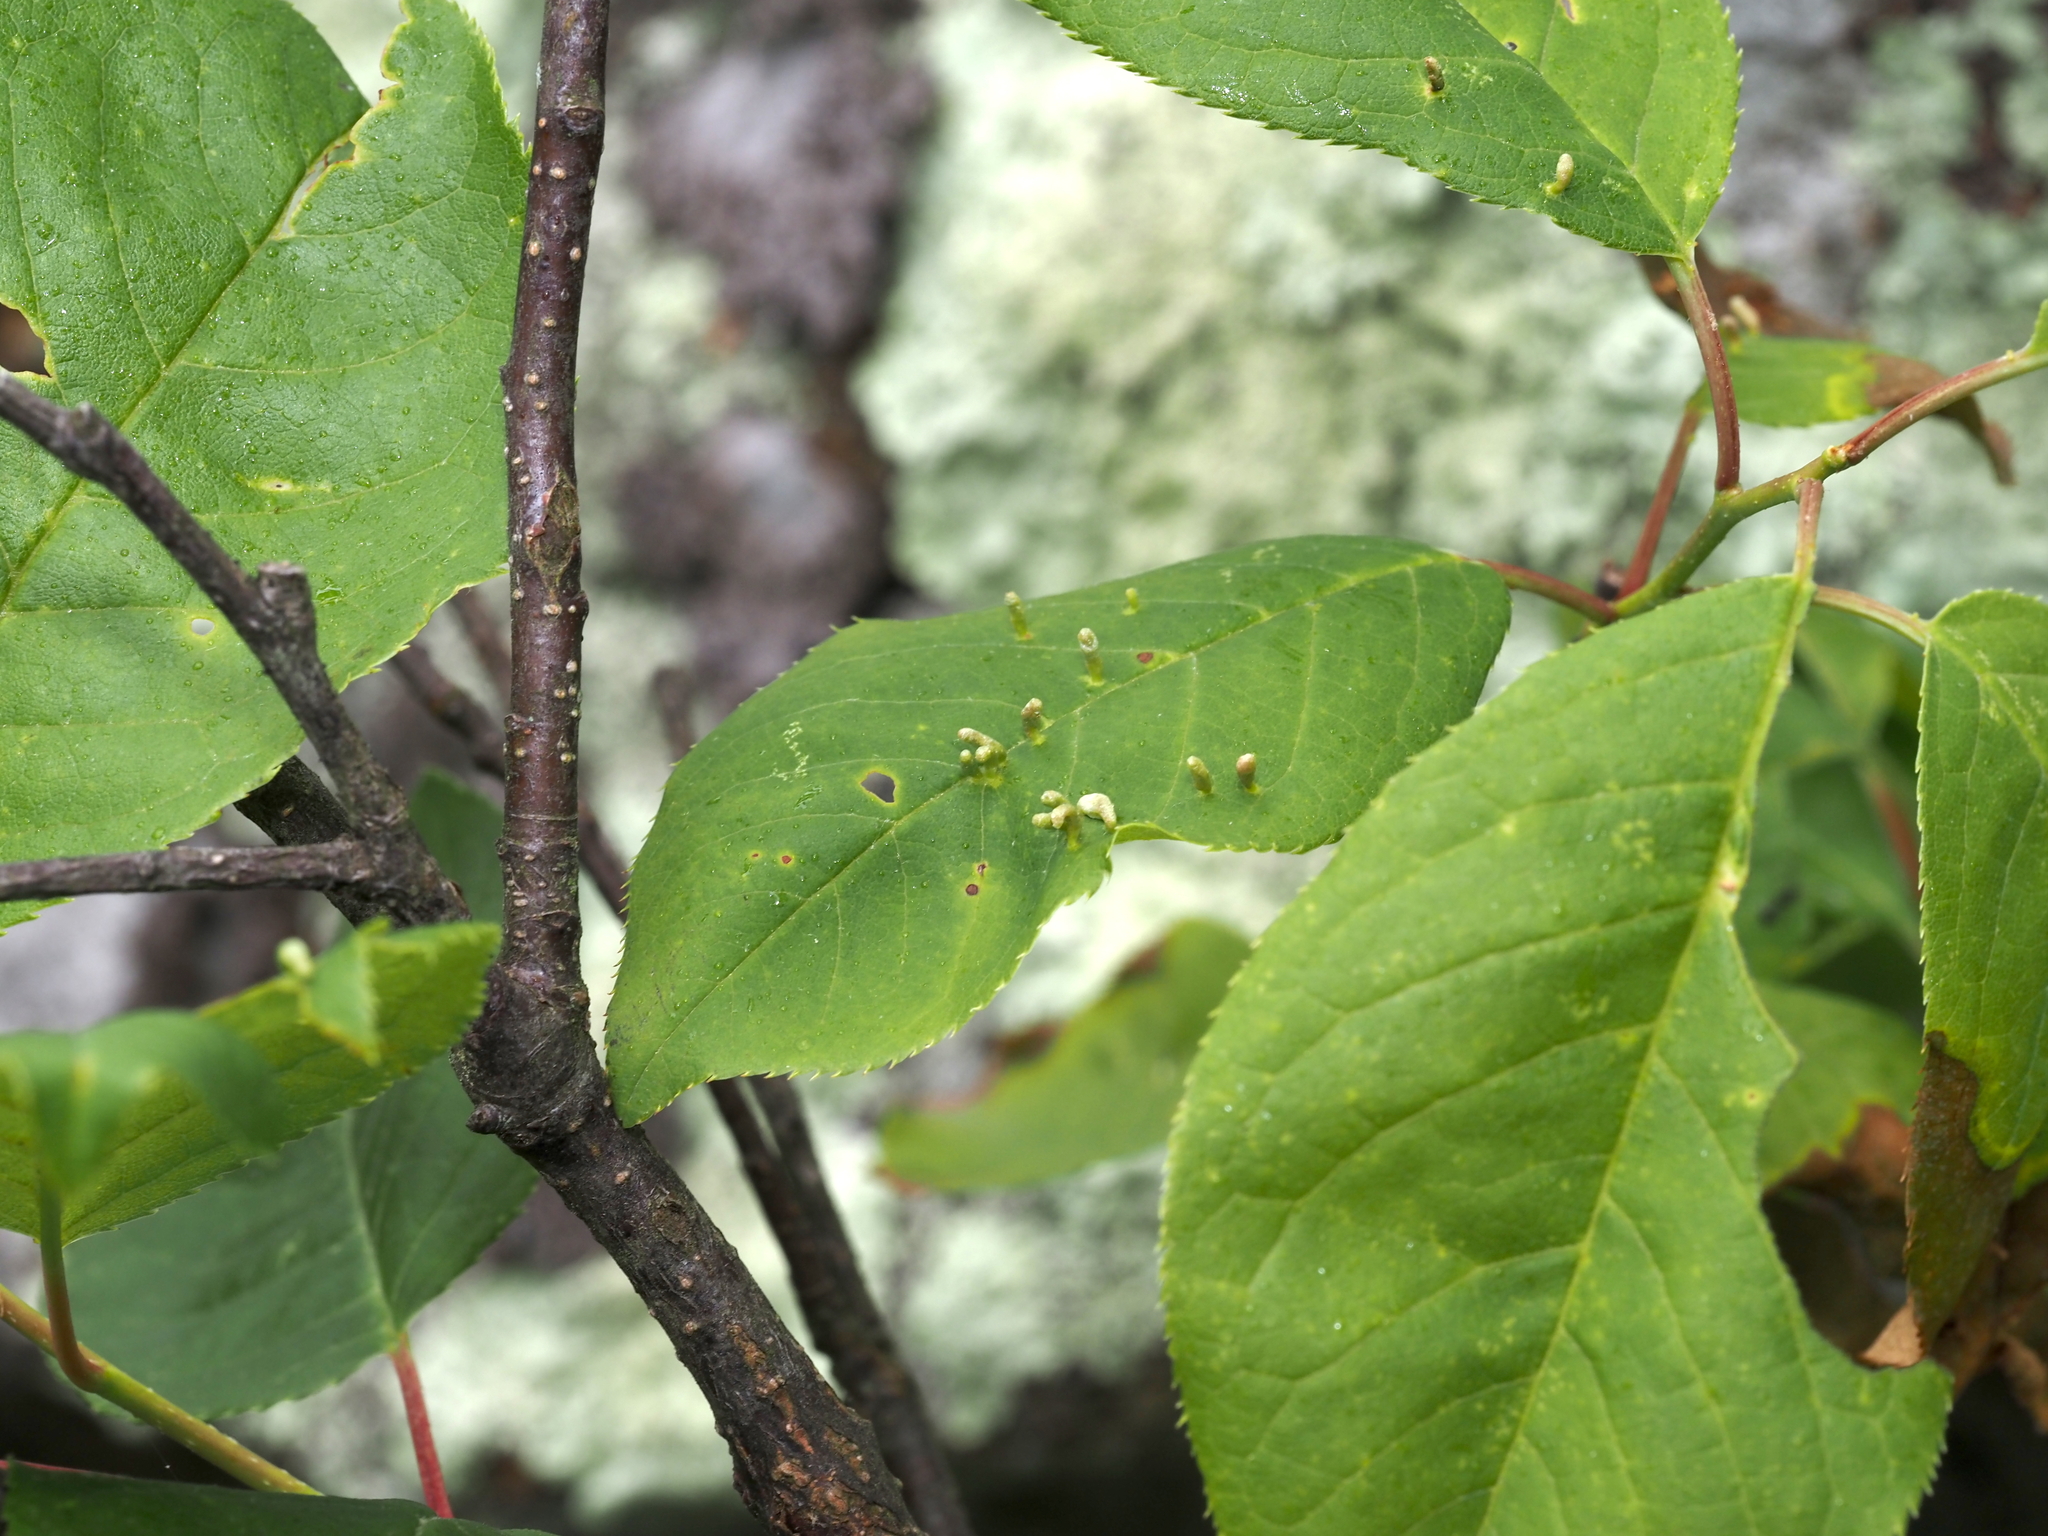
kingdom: Animalia
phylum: Arthropoda
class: Arachnida
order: Trombidiformes
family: Eriophyidae
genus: Eriophyes
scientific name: Eriophyes emarginatae
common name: Plum leaf gall mite
